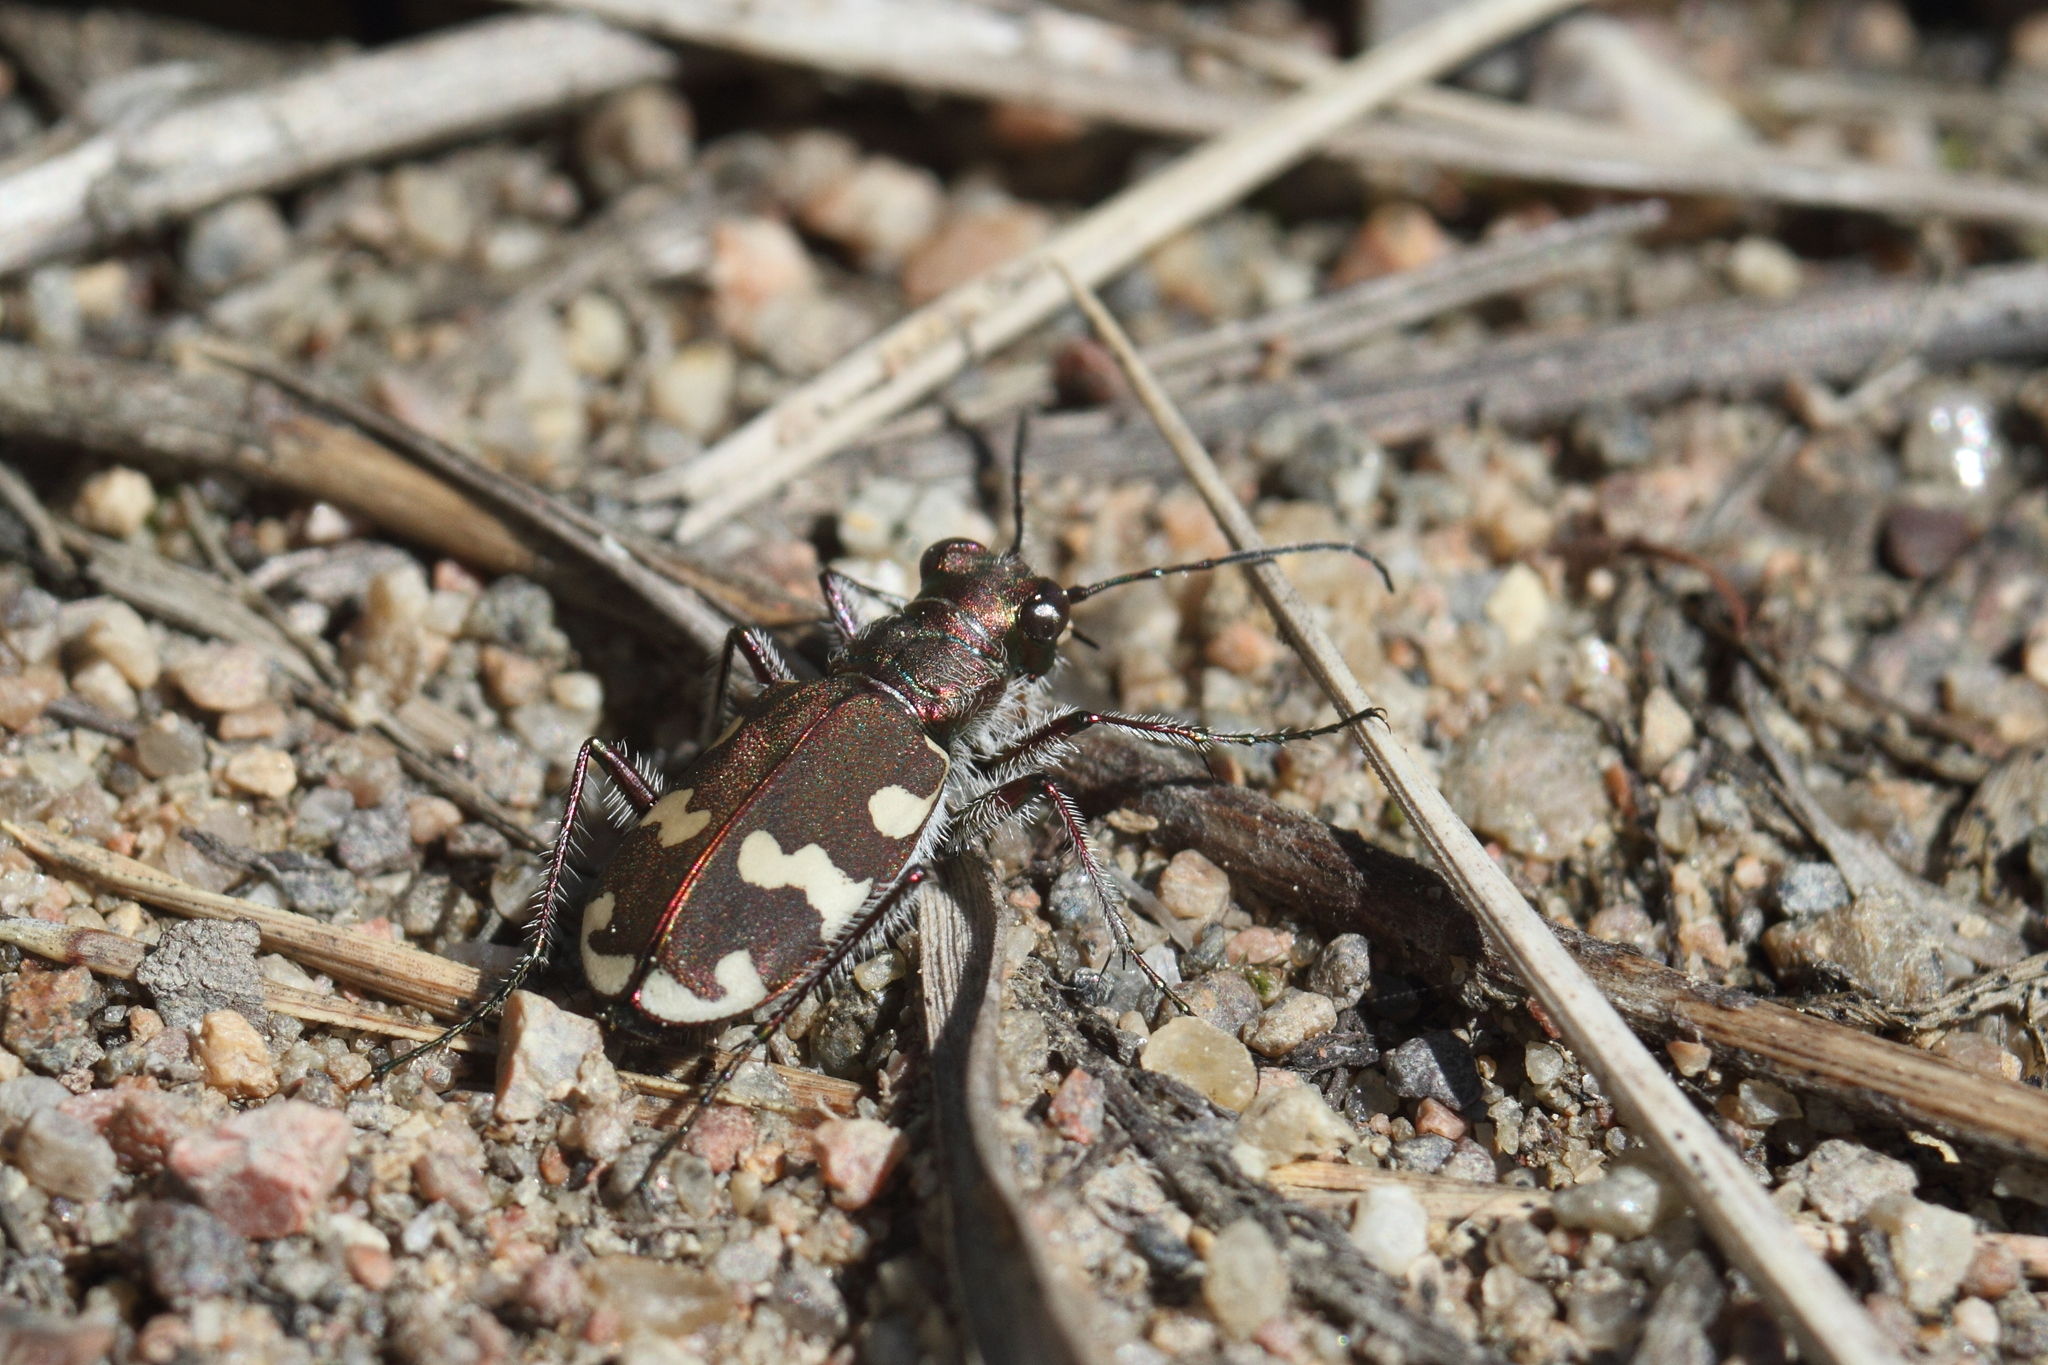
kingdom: Animalia
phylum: Arthropoda
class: Insecta
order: Coleoptera
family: Carabidae
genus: Cicindela
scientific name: Cicindela hybrida
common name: Northern dune tiger beetle
